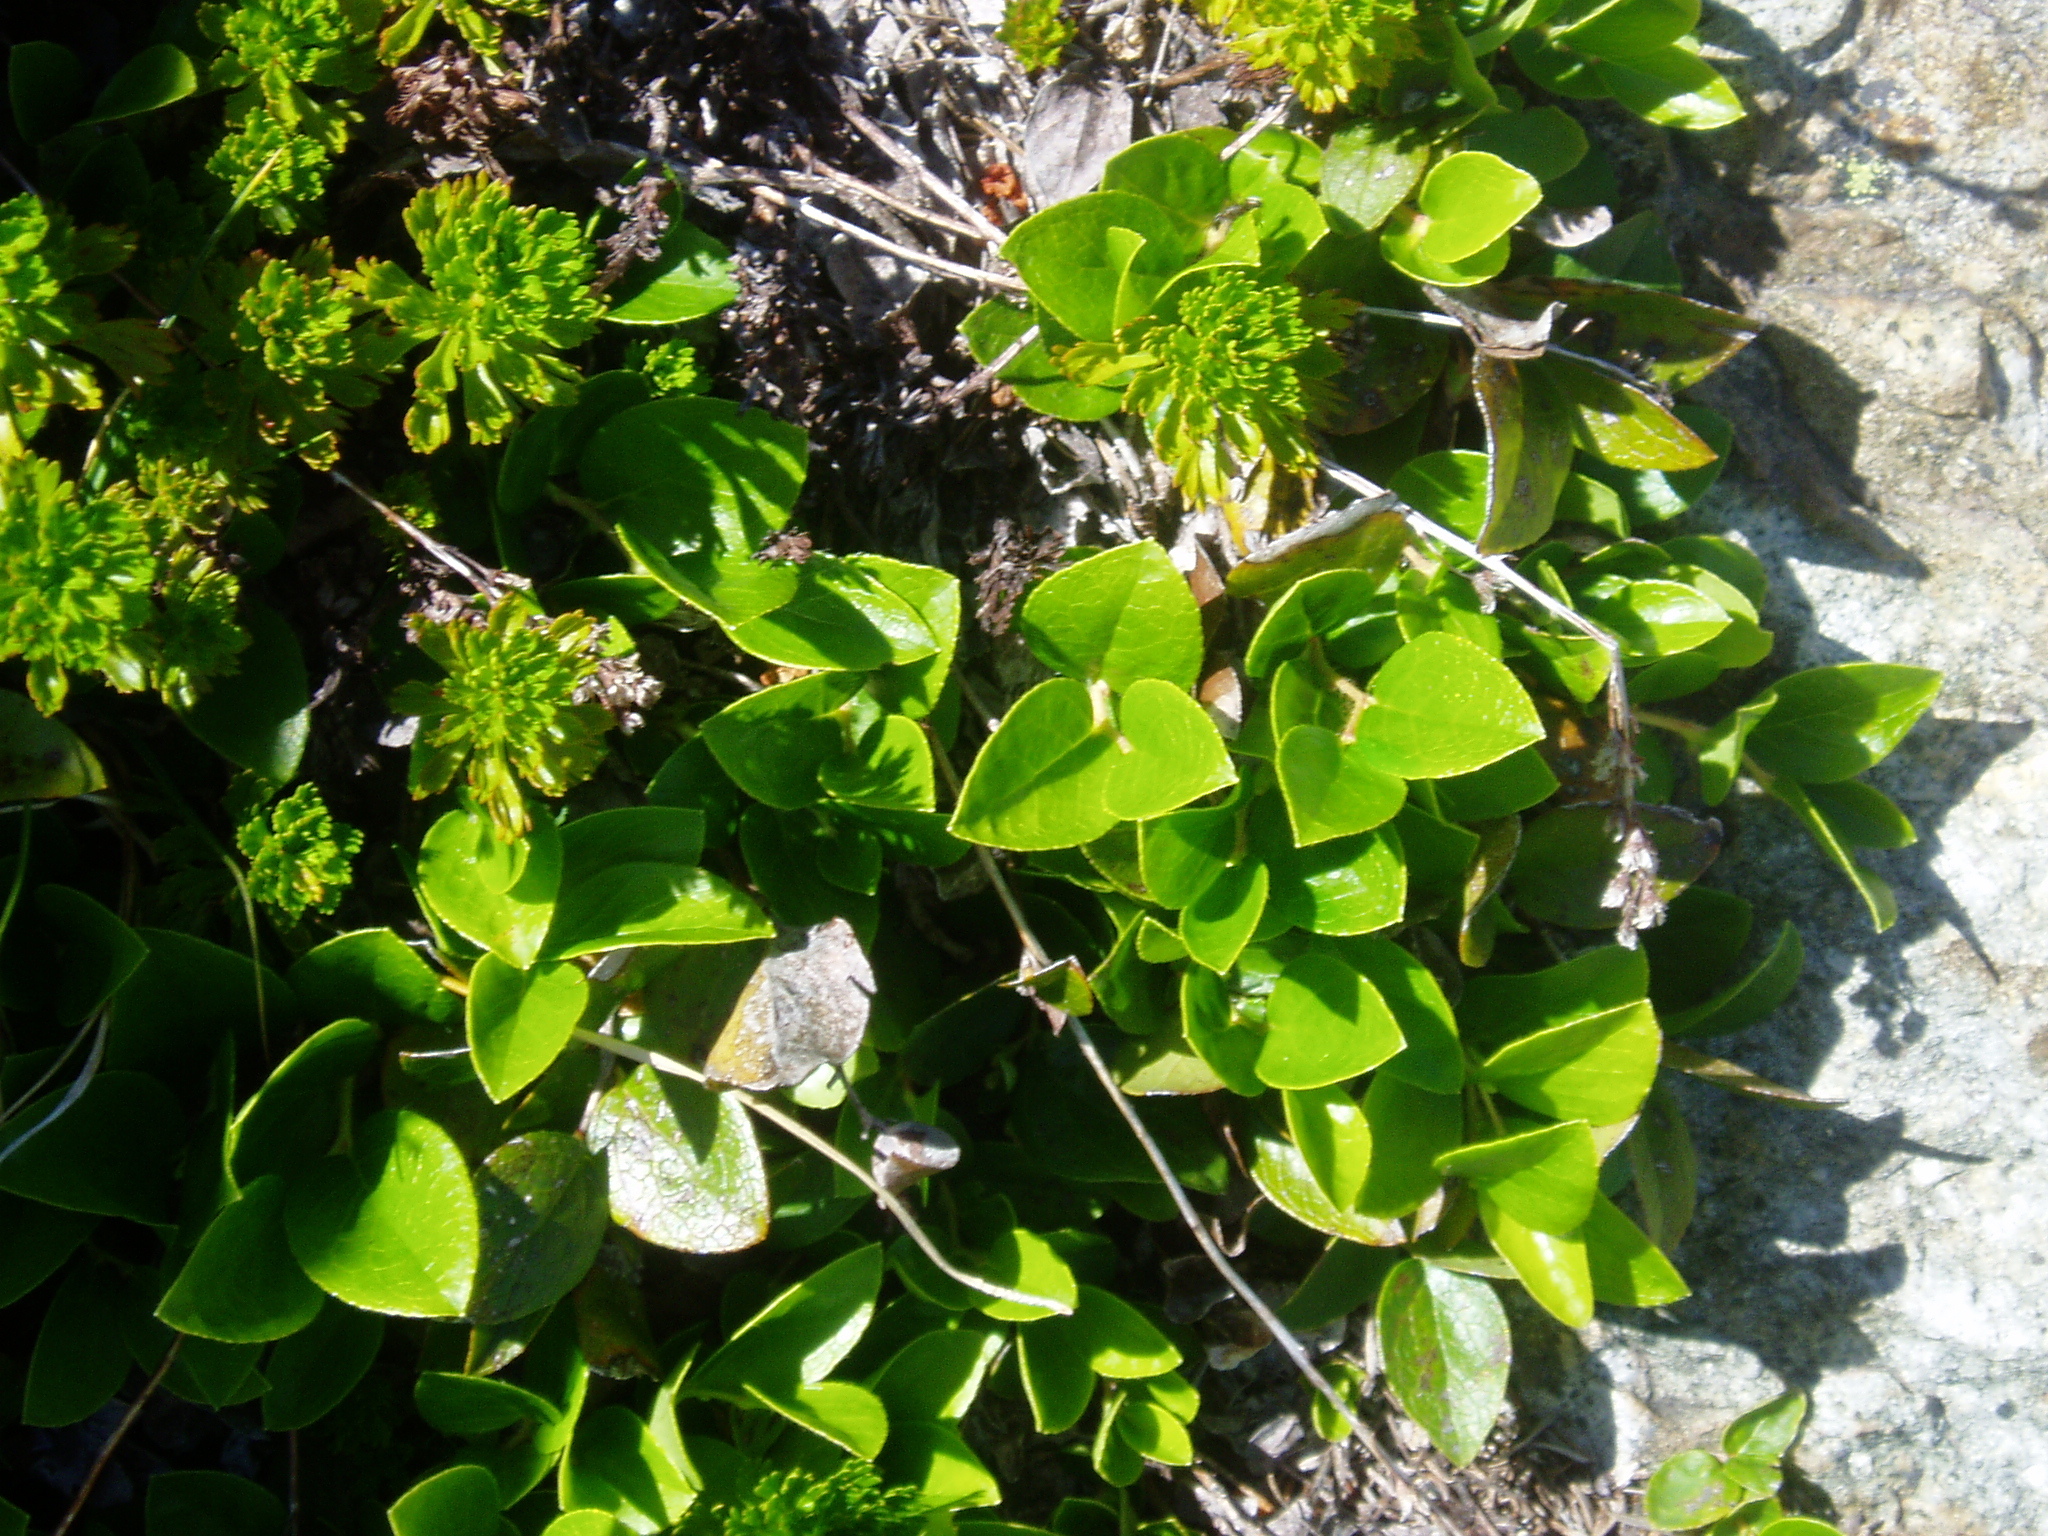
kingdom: Plantae
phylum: Tracheophyta
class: Magnoliopsida
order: Ericales
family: Ericaceae
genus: Gaultheria
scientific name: Gaultheria humifusa
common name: Alpine wintergreen
